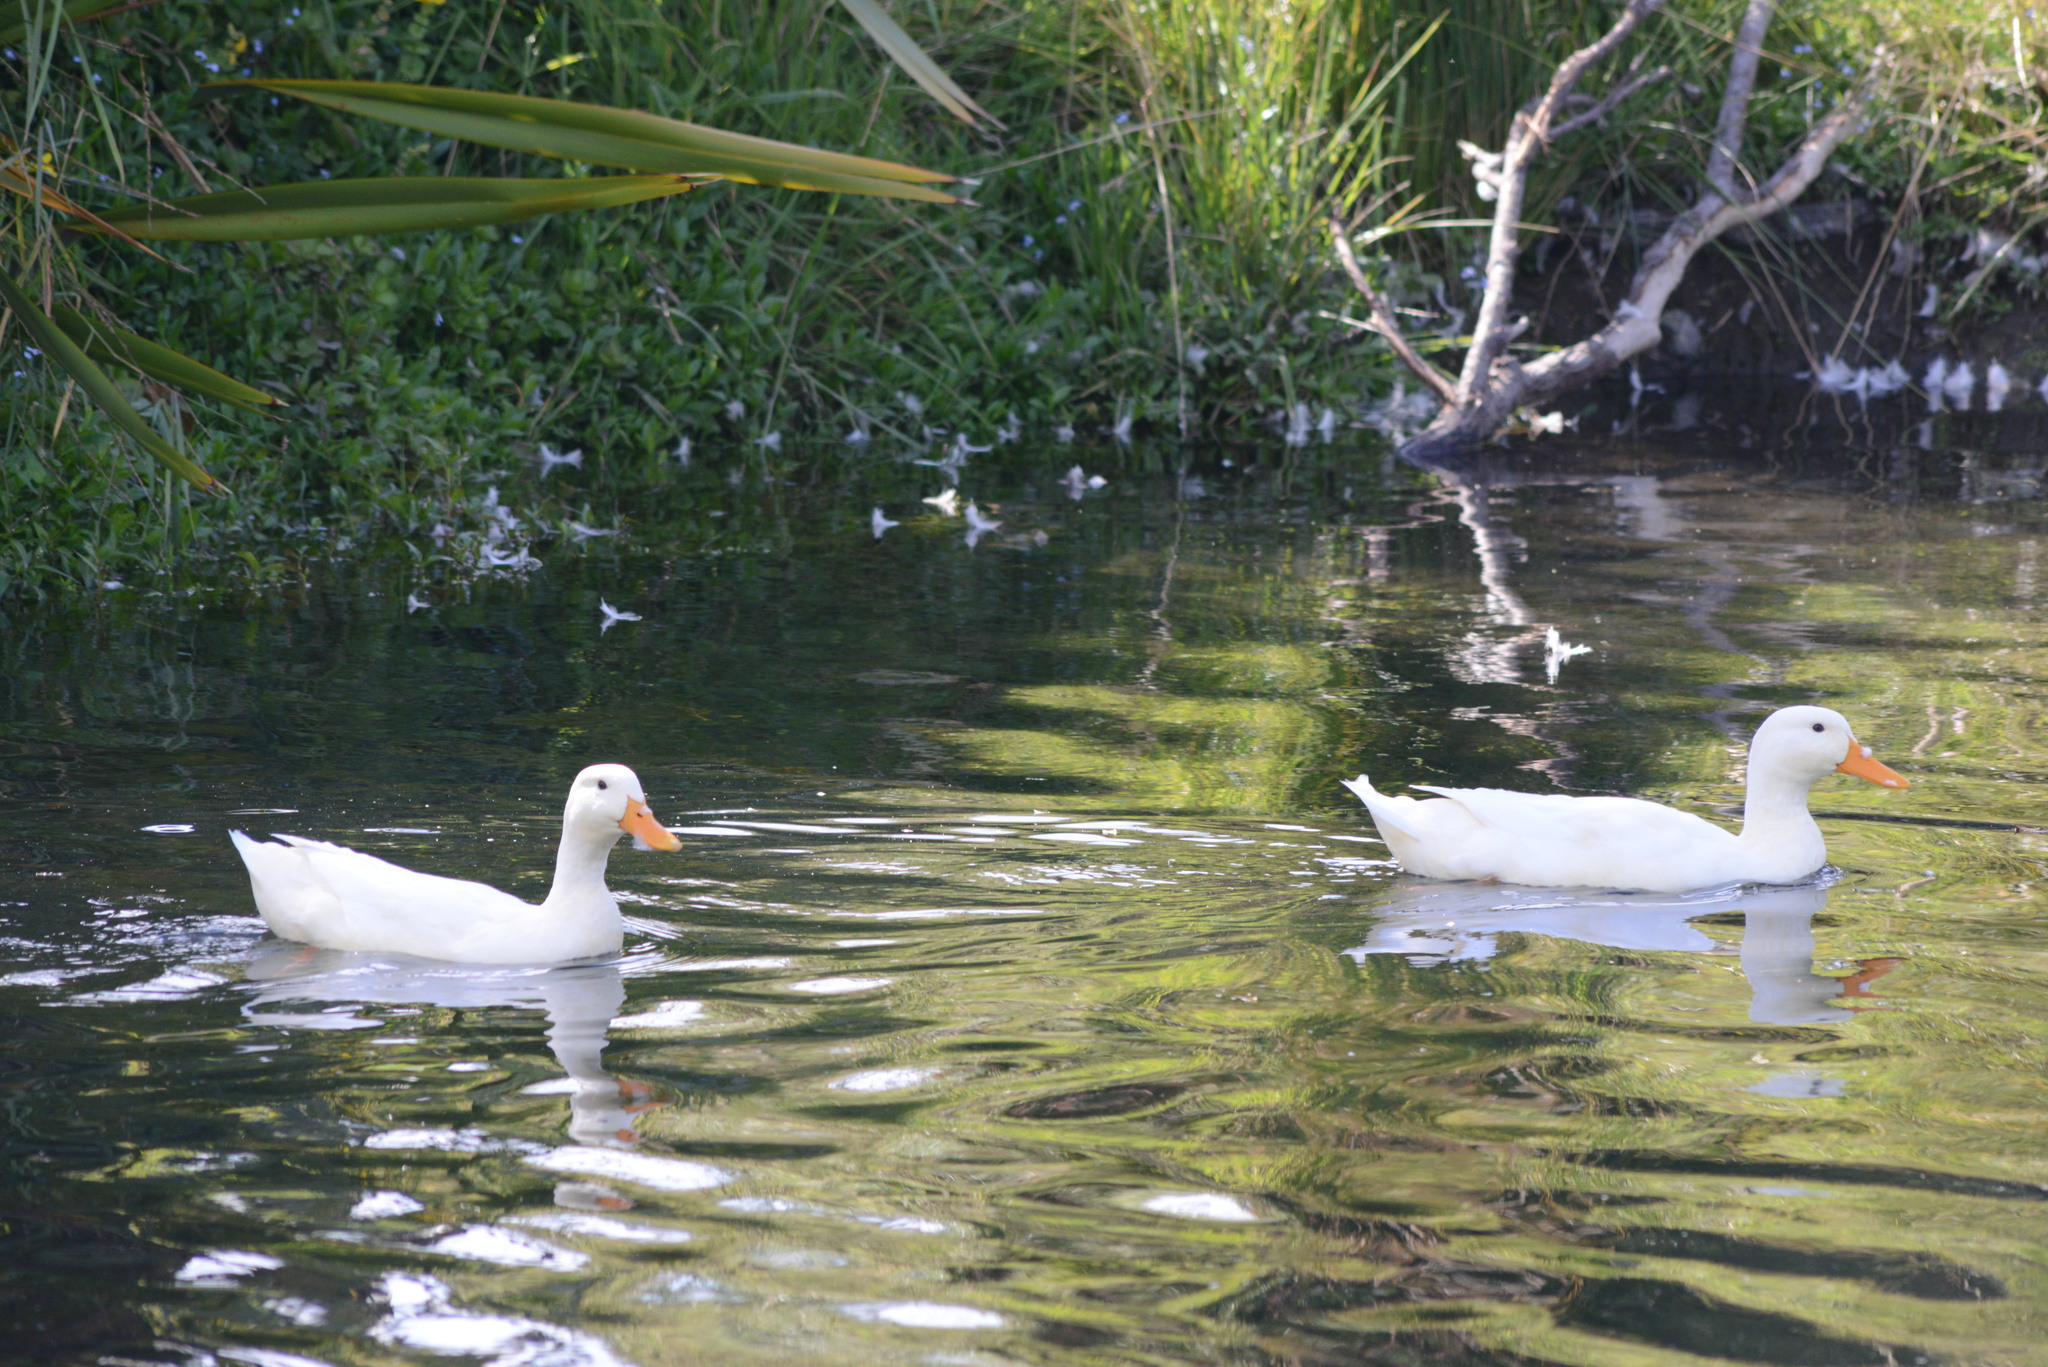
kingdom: Animalia
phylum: Chordata
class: Aves
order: Anseriformes
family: Anatidae
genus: Anas
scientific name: Anas platyrhynchos
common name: Mallard
